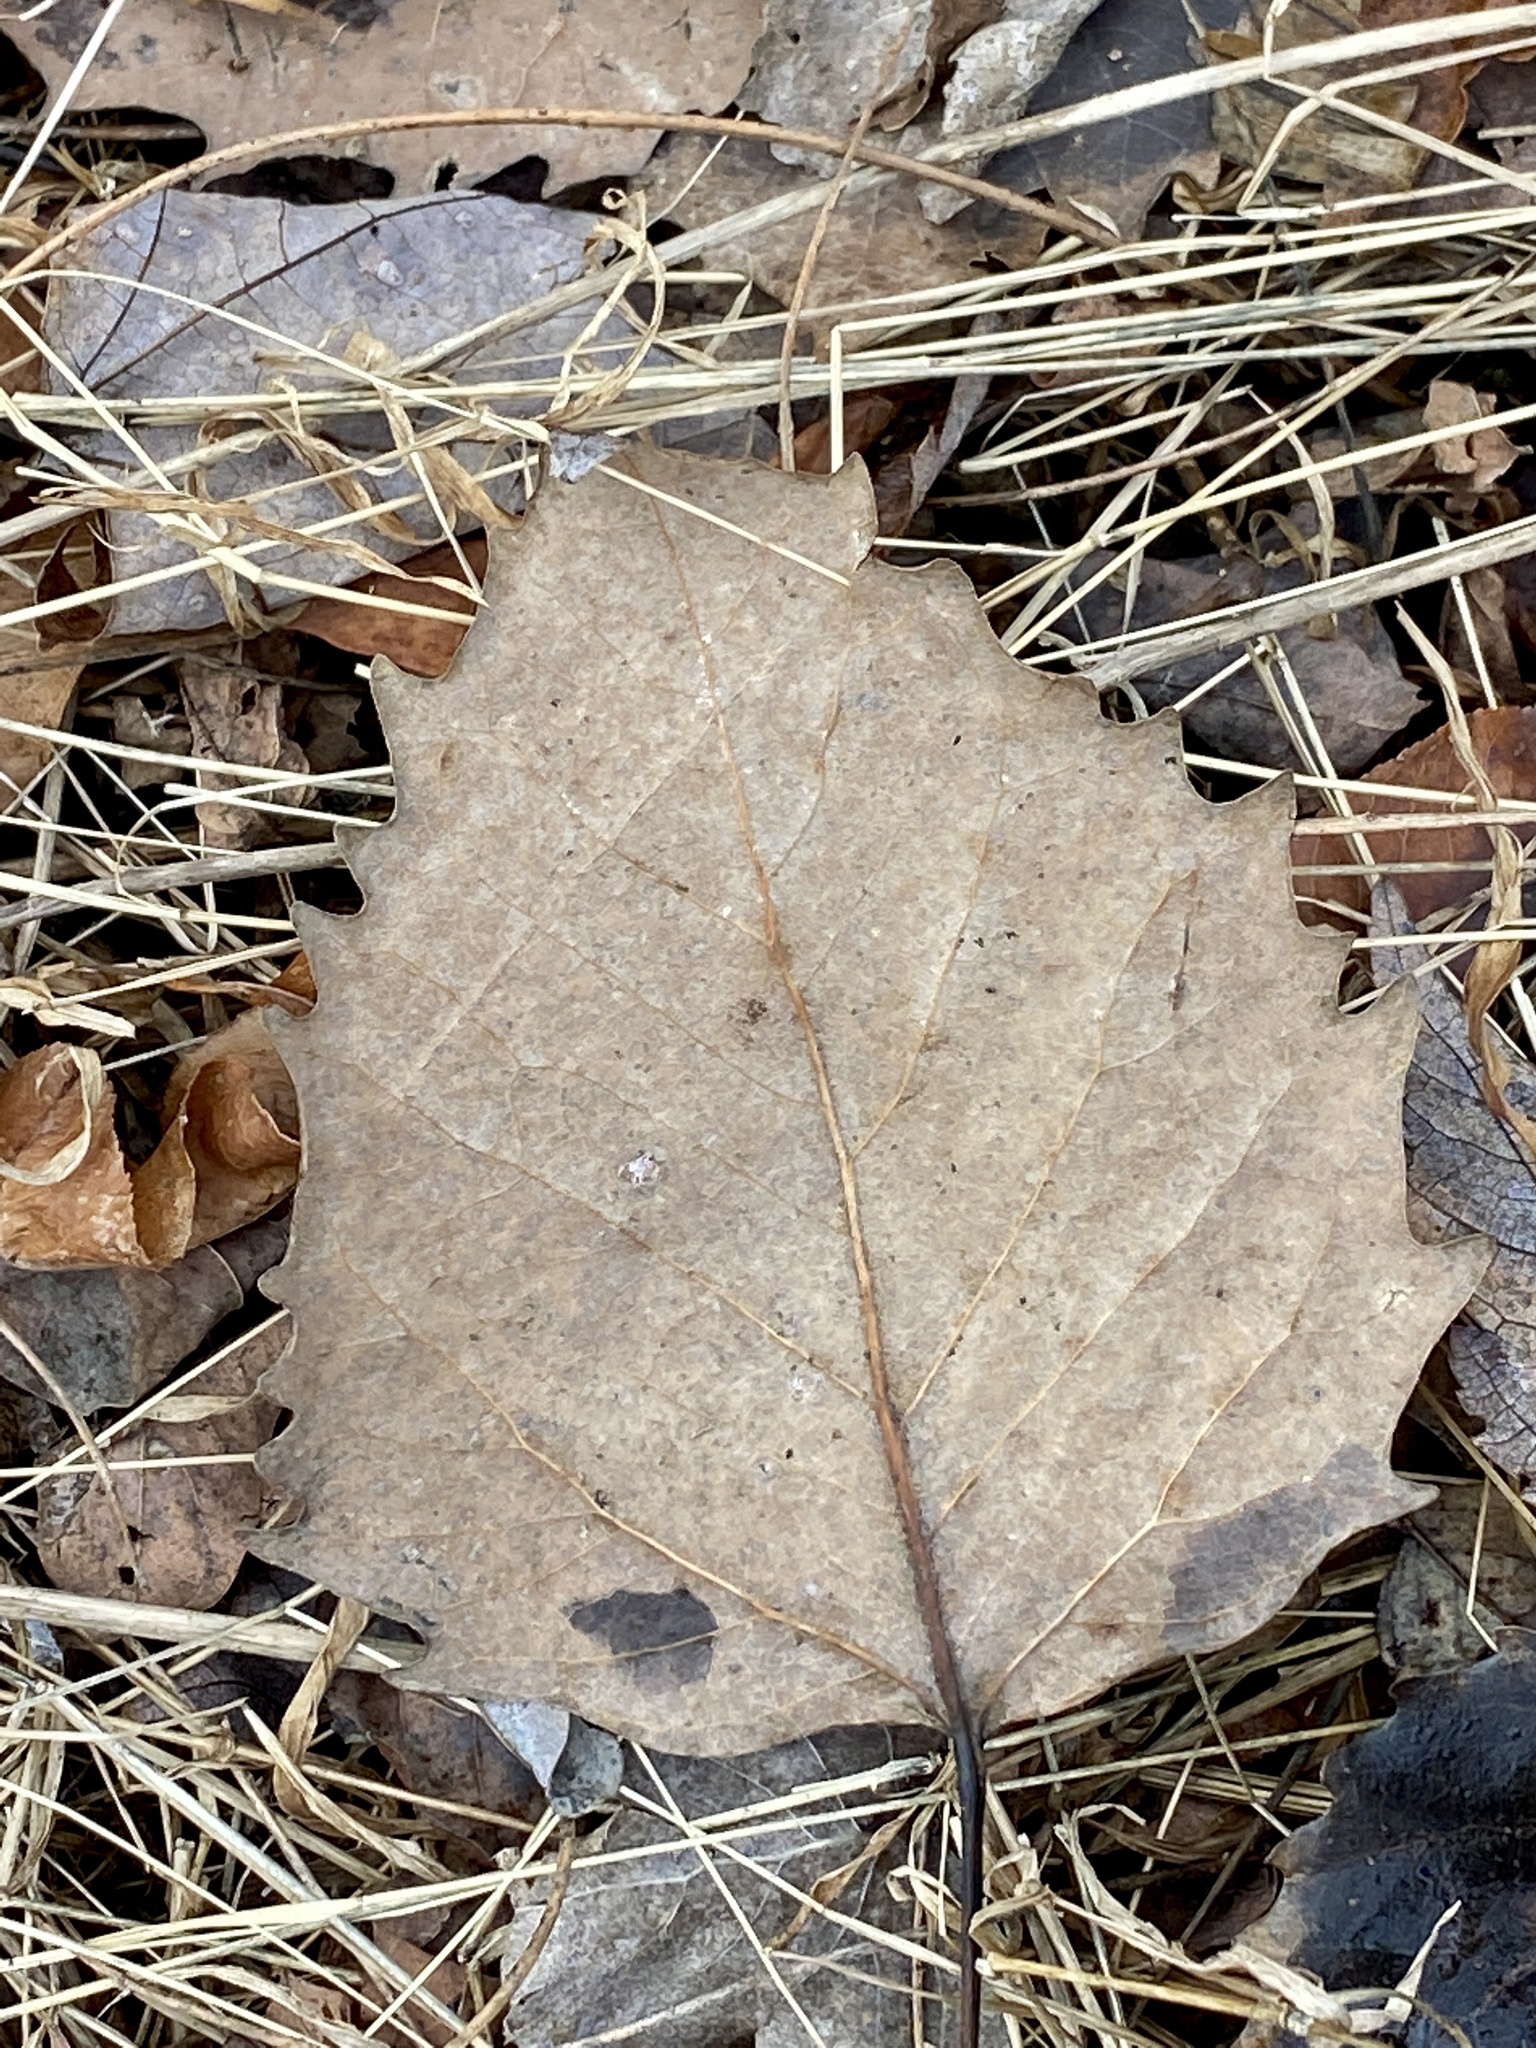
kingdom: Plantae
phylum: Tracheophyta
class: Magnoliopsida
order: Malpighiales
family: Salicaceae
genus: Populus
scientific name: Populus grandidentata
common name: Bigtooth aspen
